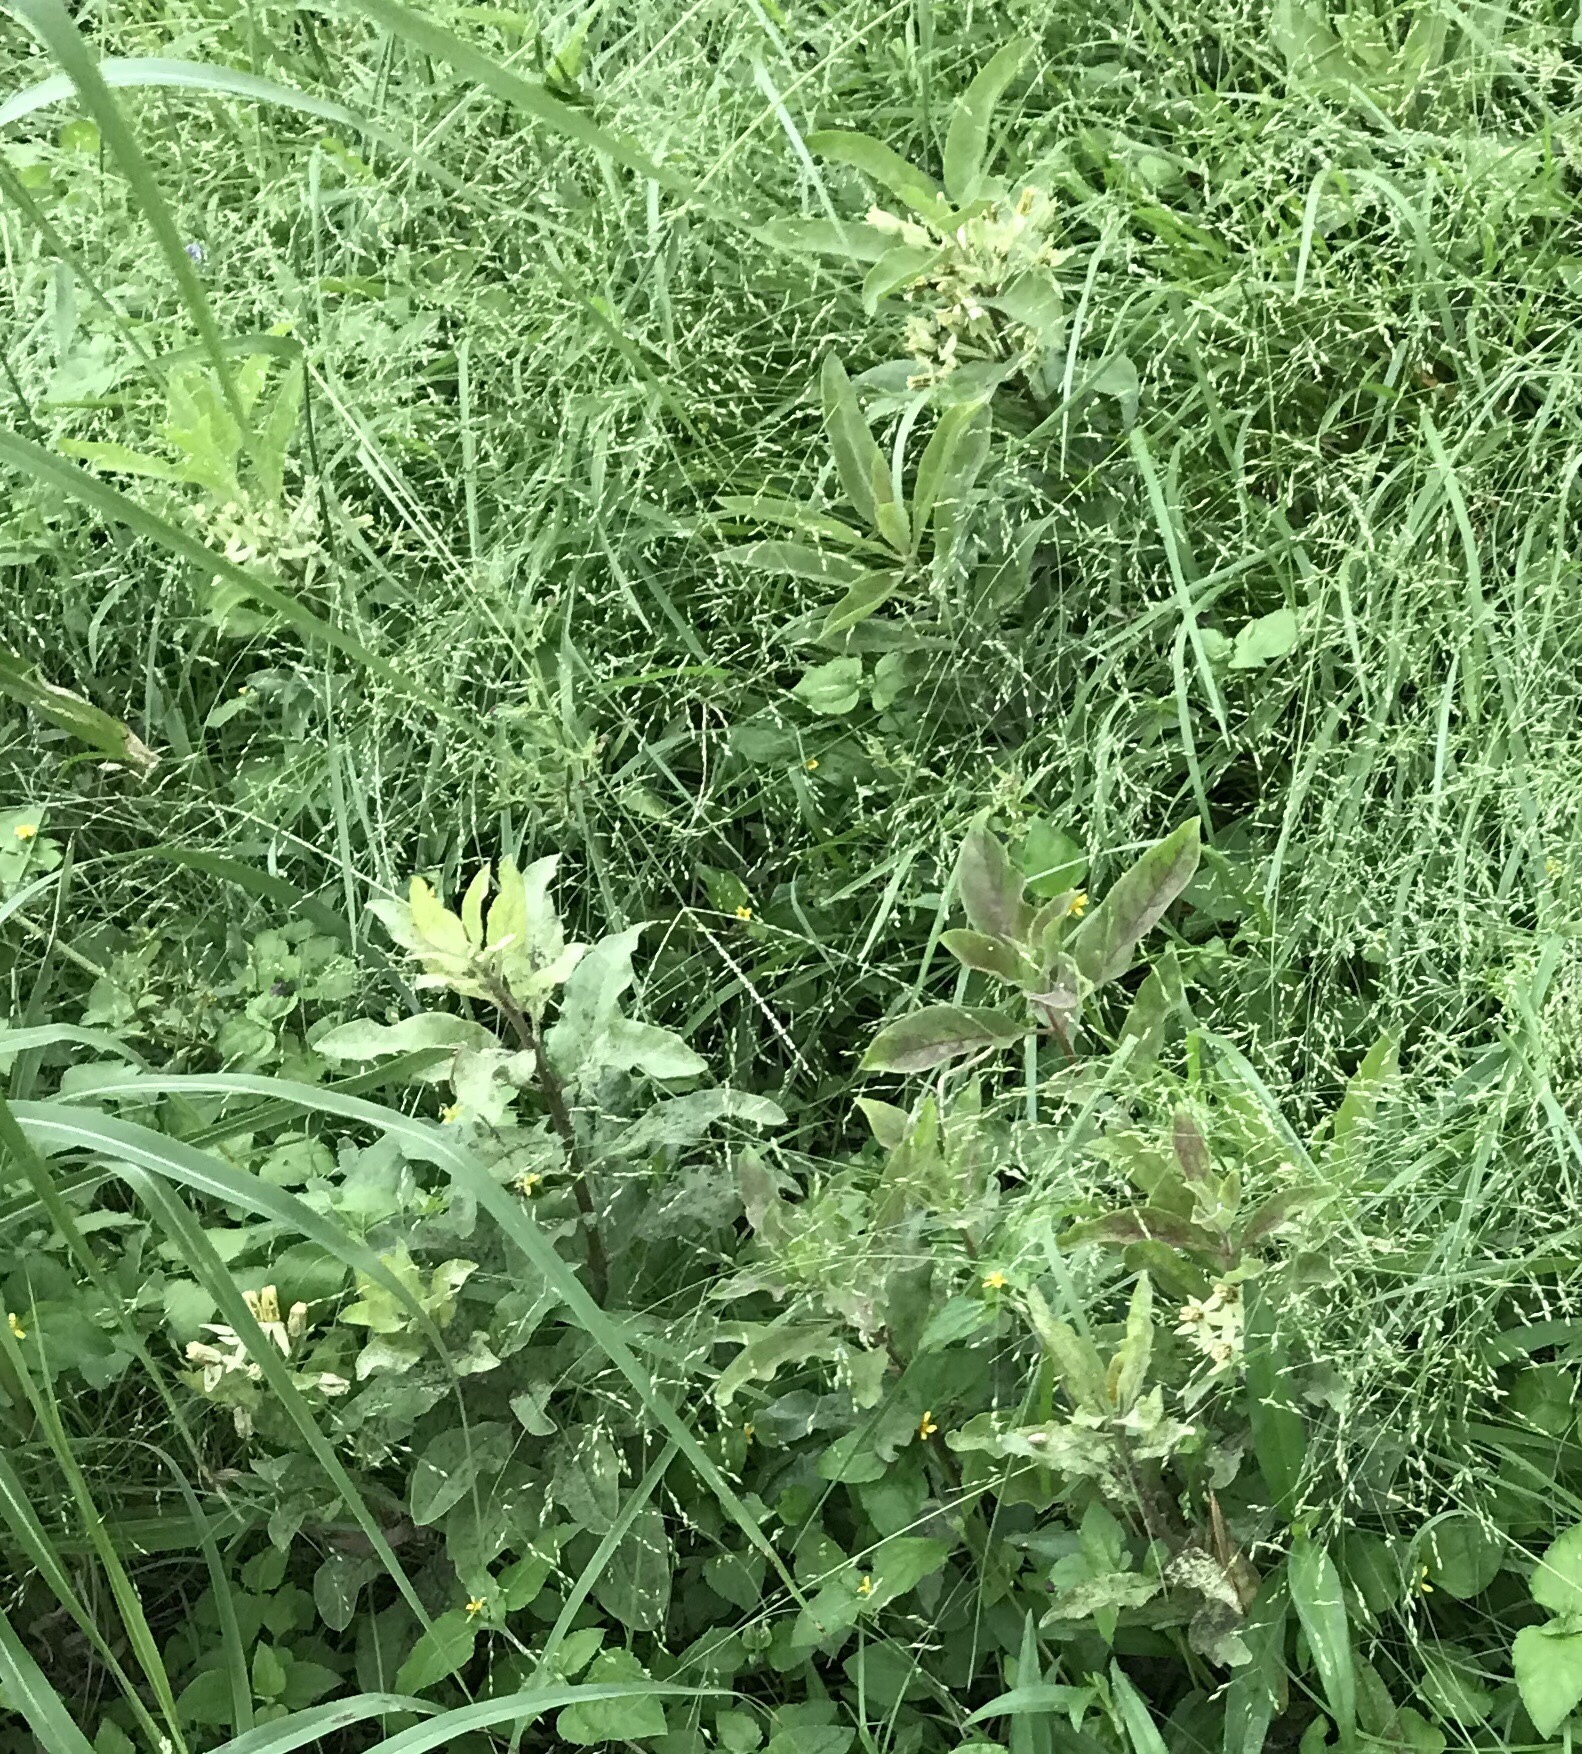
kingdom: Plantae
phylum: Tracheophyta
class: Magnoliopsida
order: Gentianales
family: Apocynaceae
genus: Asclepias
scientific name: Asclepias oenotheroides
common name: Zizotes milkweed
